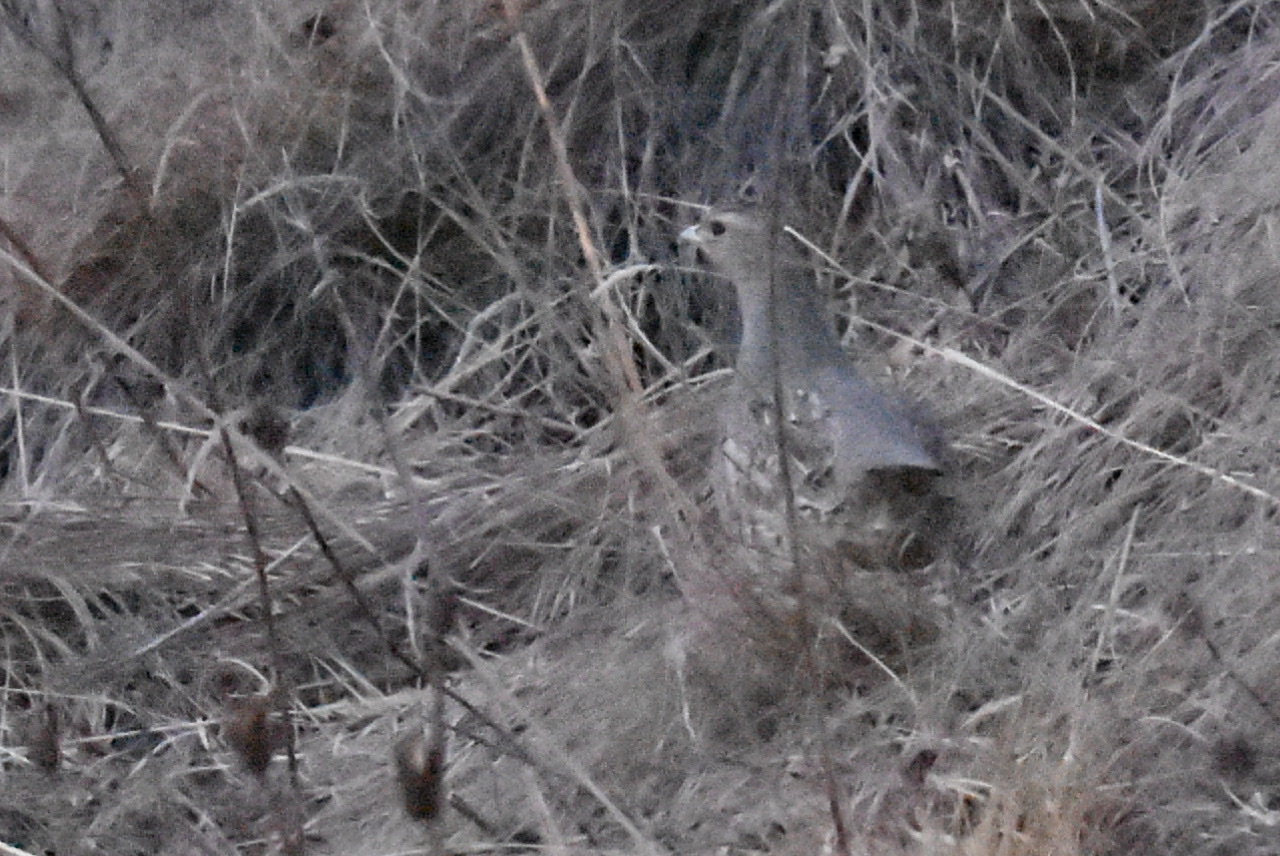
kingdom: Animalia
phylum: Chordata
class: Aves
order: Galliformes
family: Phasianidae
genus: Perdix
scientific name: Perdix perdix
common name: Grey partridge
